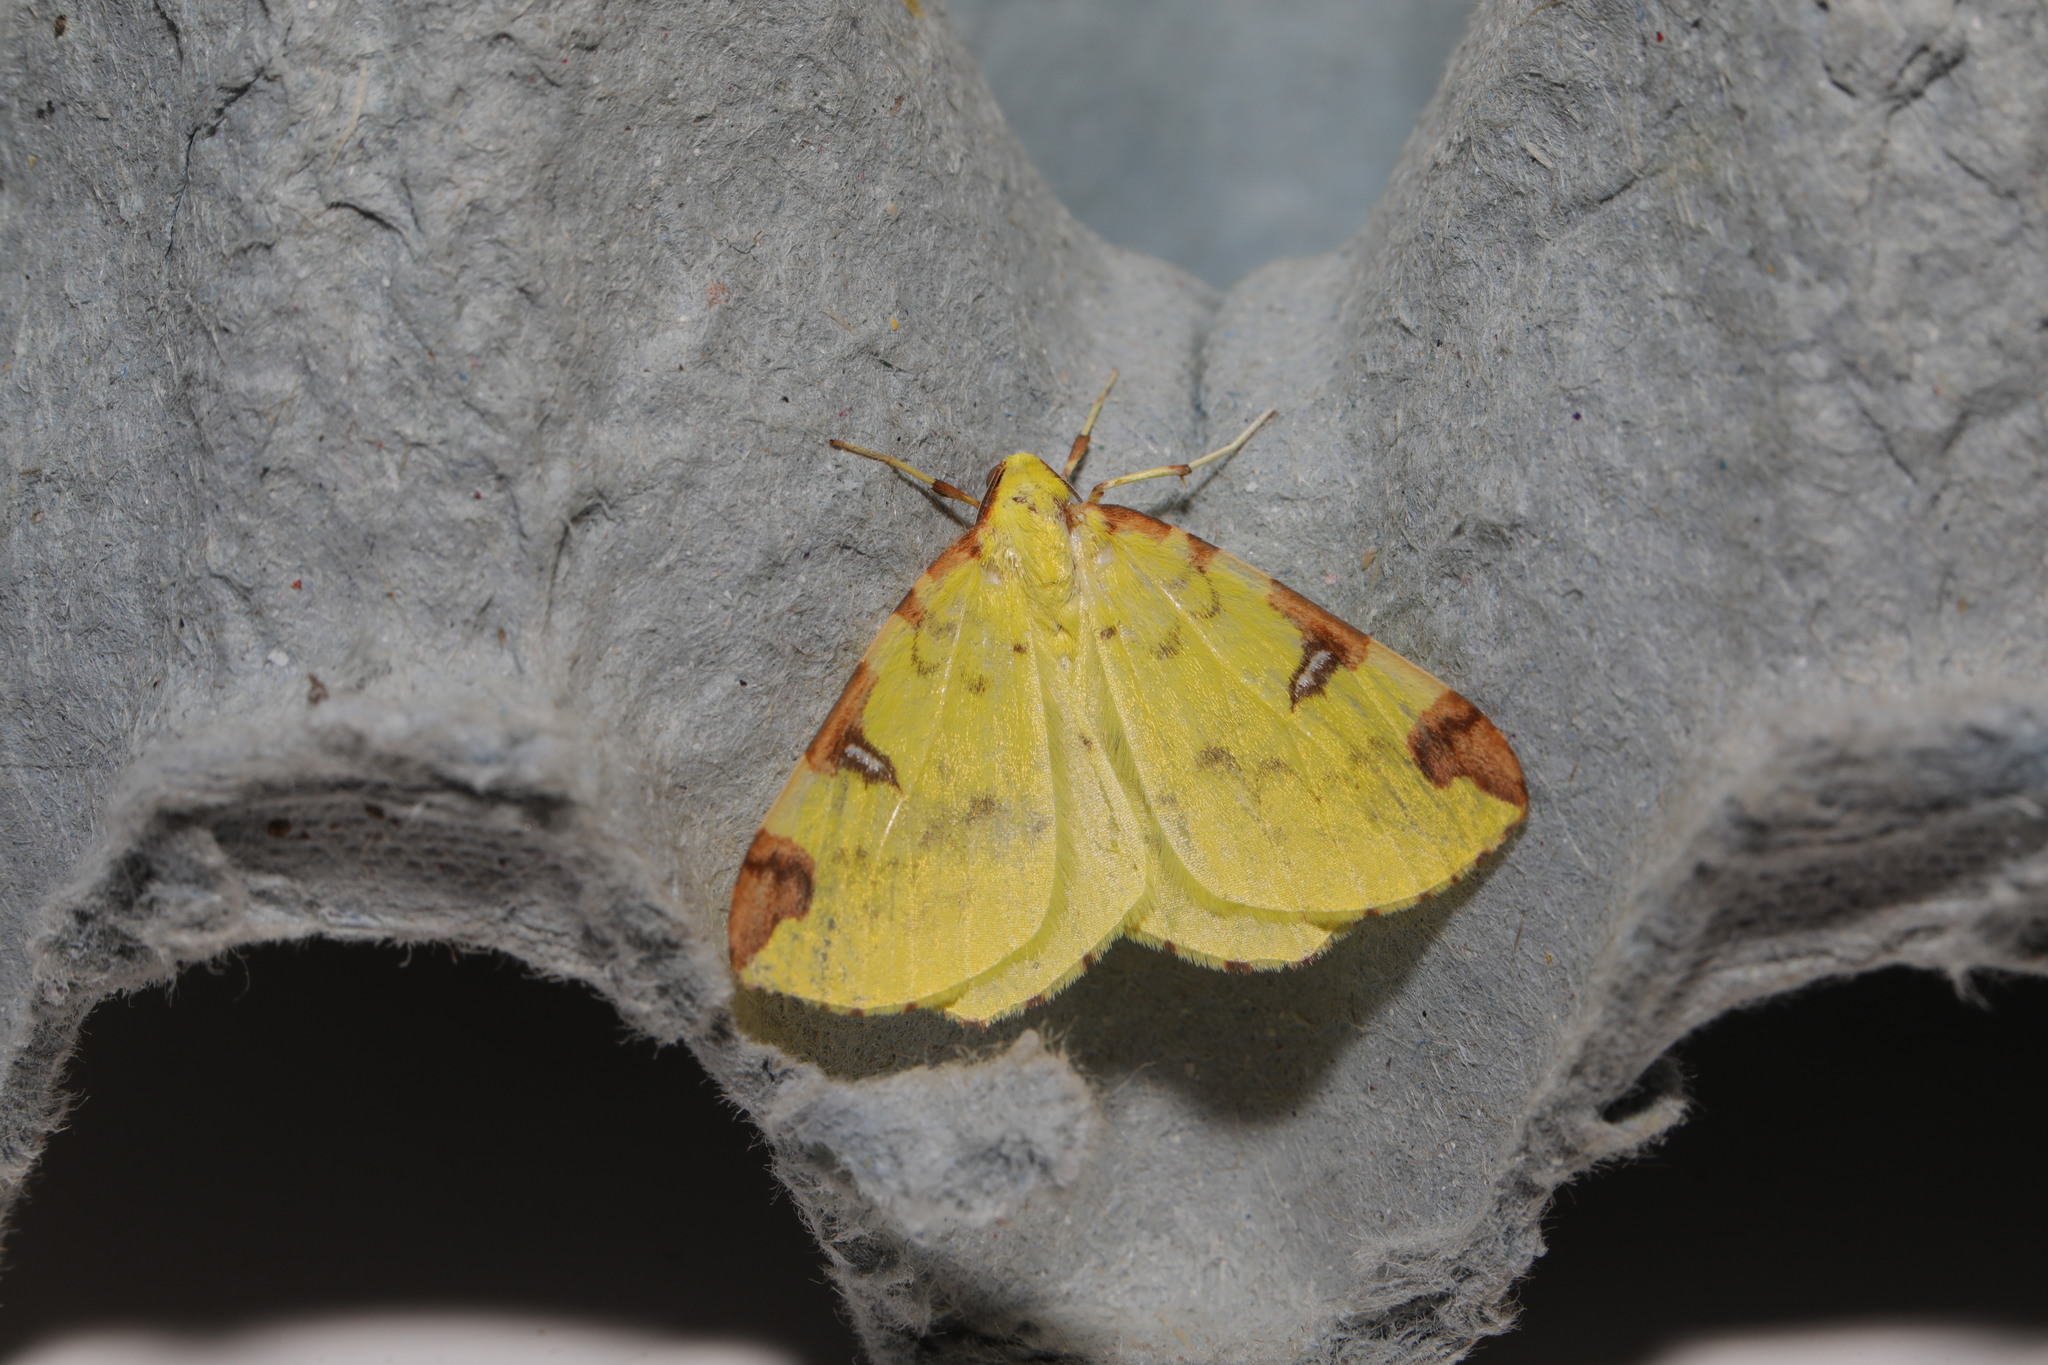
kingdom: Animalia
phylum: Arthropoda
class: Insecta
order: Lepidoptera
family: Geometridae
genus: Opisthograptis
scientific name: Opisthograptis luteolata
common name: Brimstone moth
